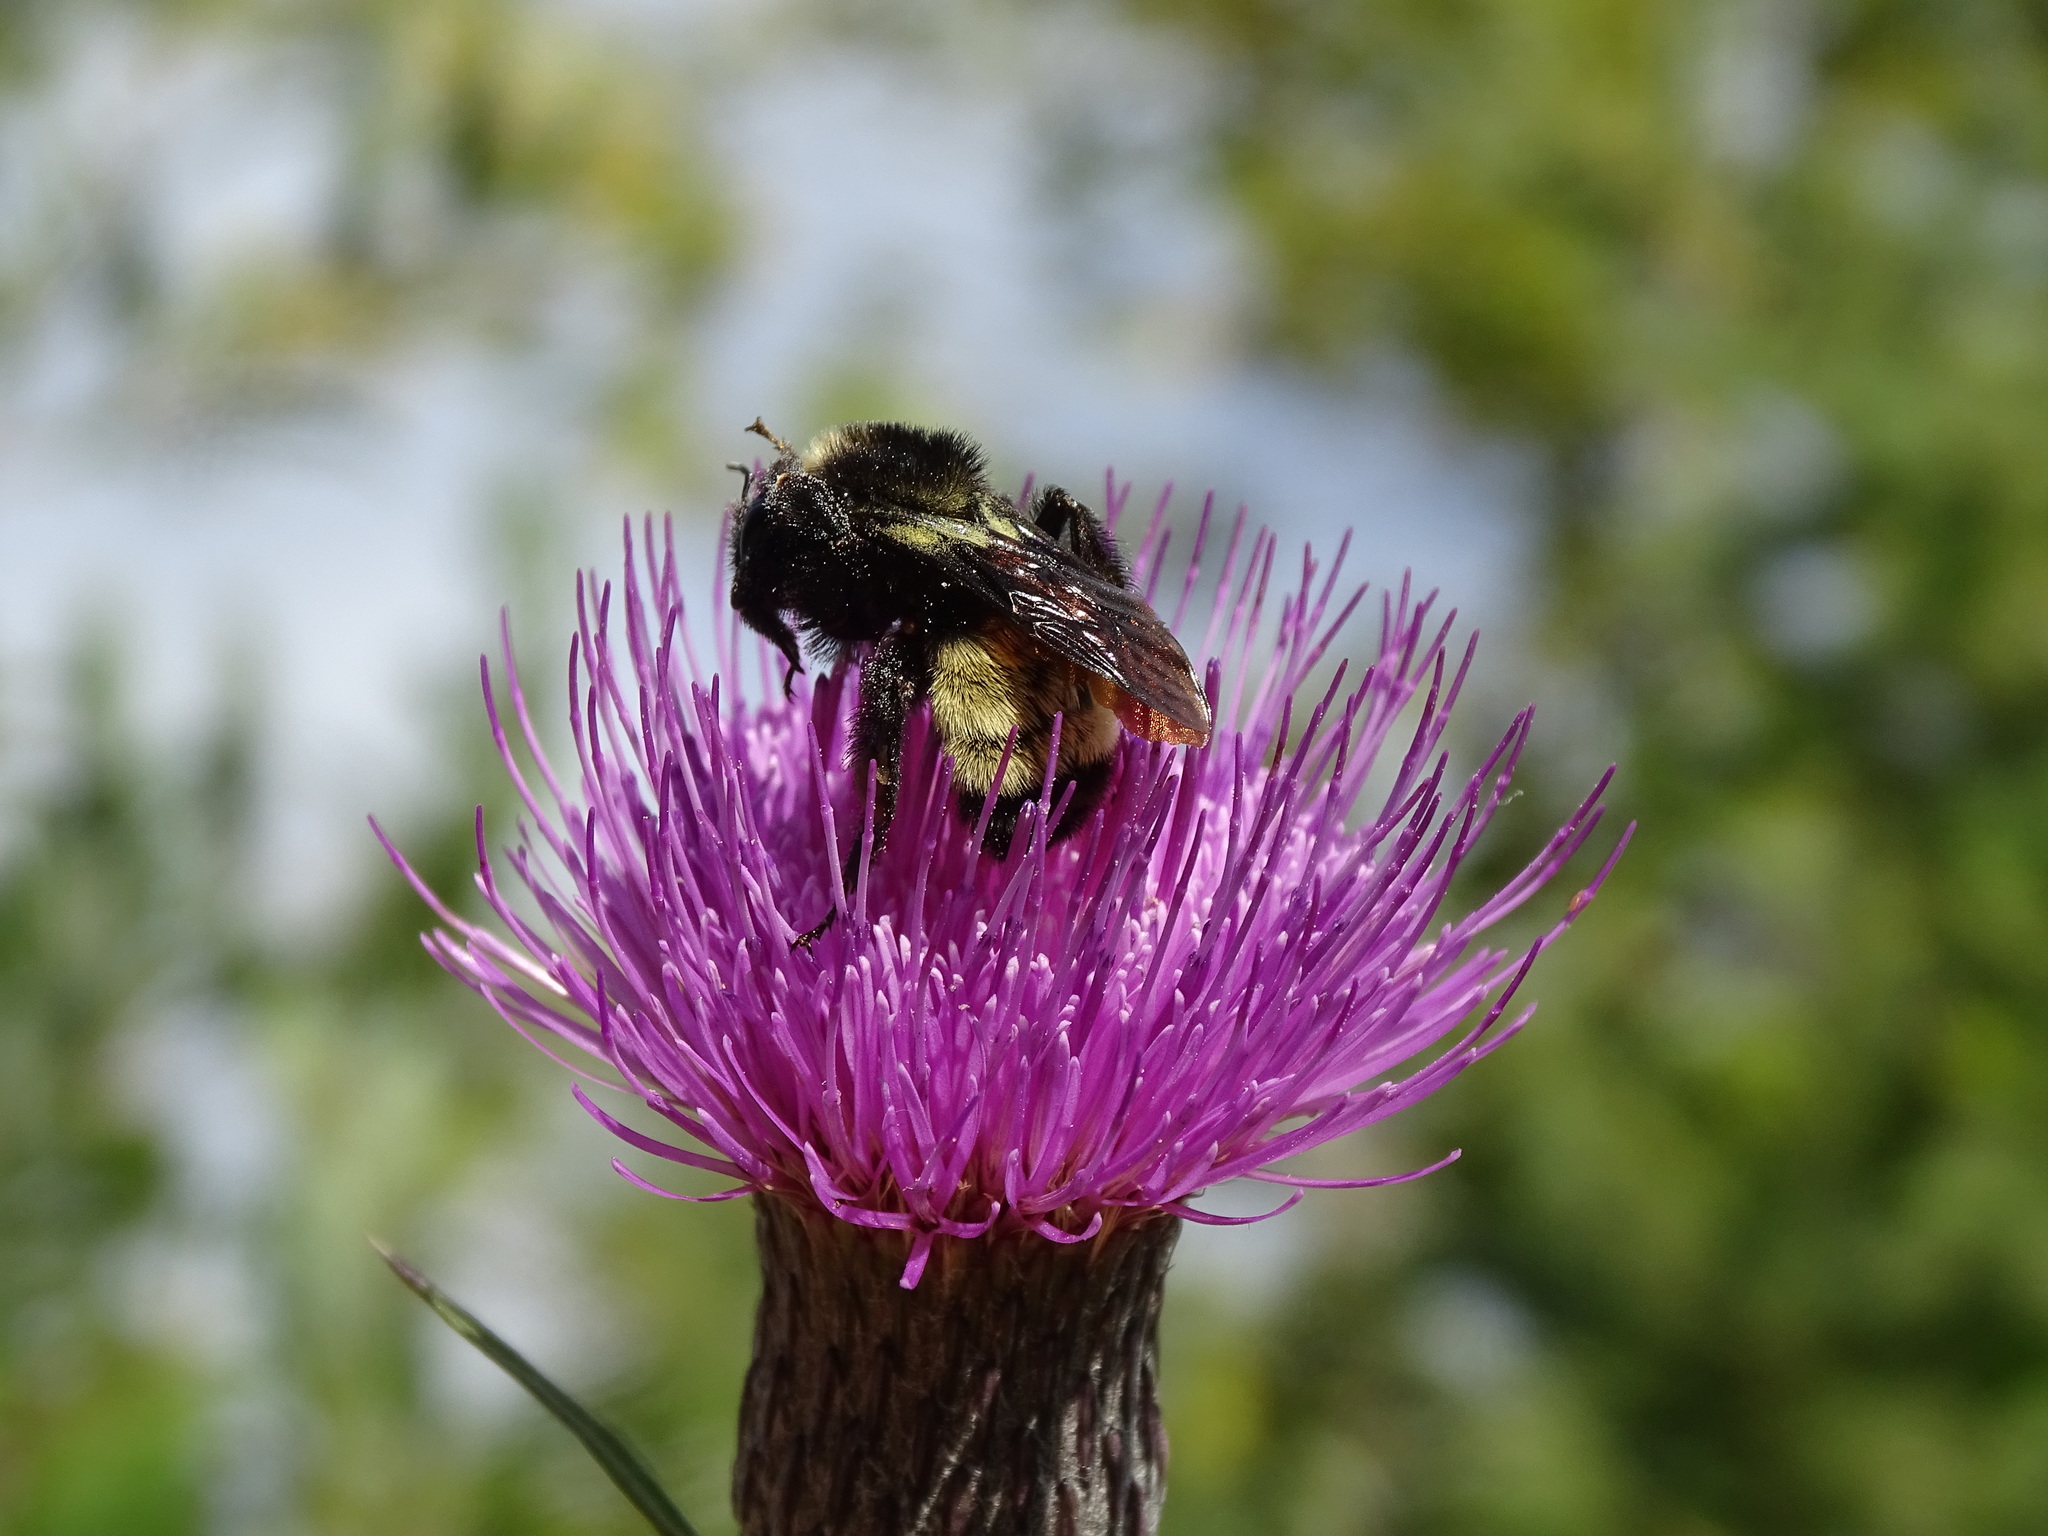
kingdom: Animalia
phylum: Arthropoda
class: Insecta
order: Hymenoptera
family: Apidae
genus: Bombus
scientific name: Bombus pensylvanicus
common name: Bumble bee
